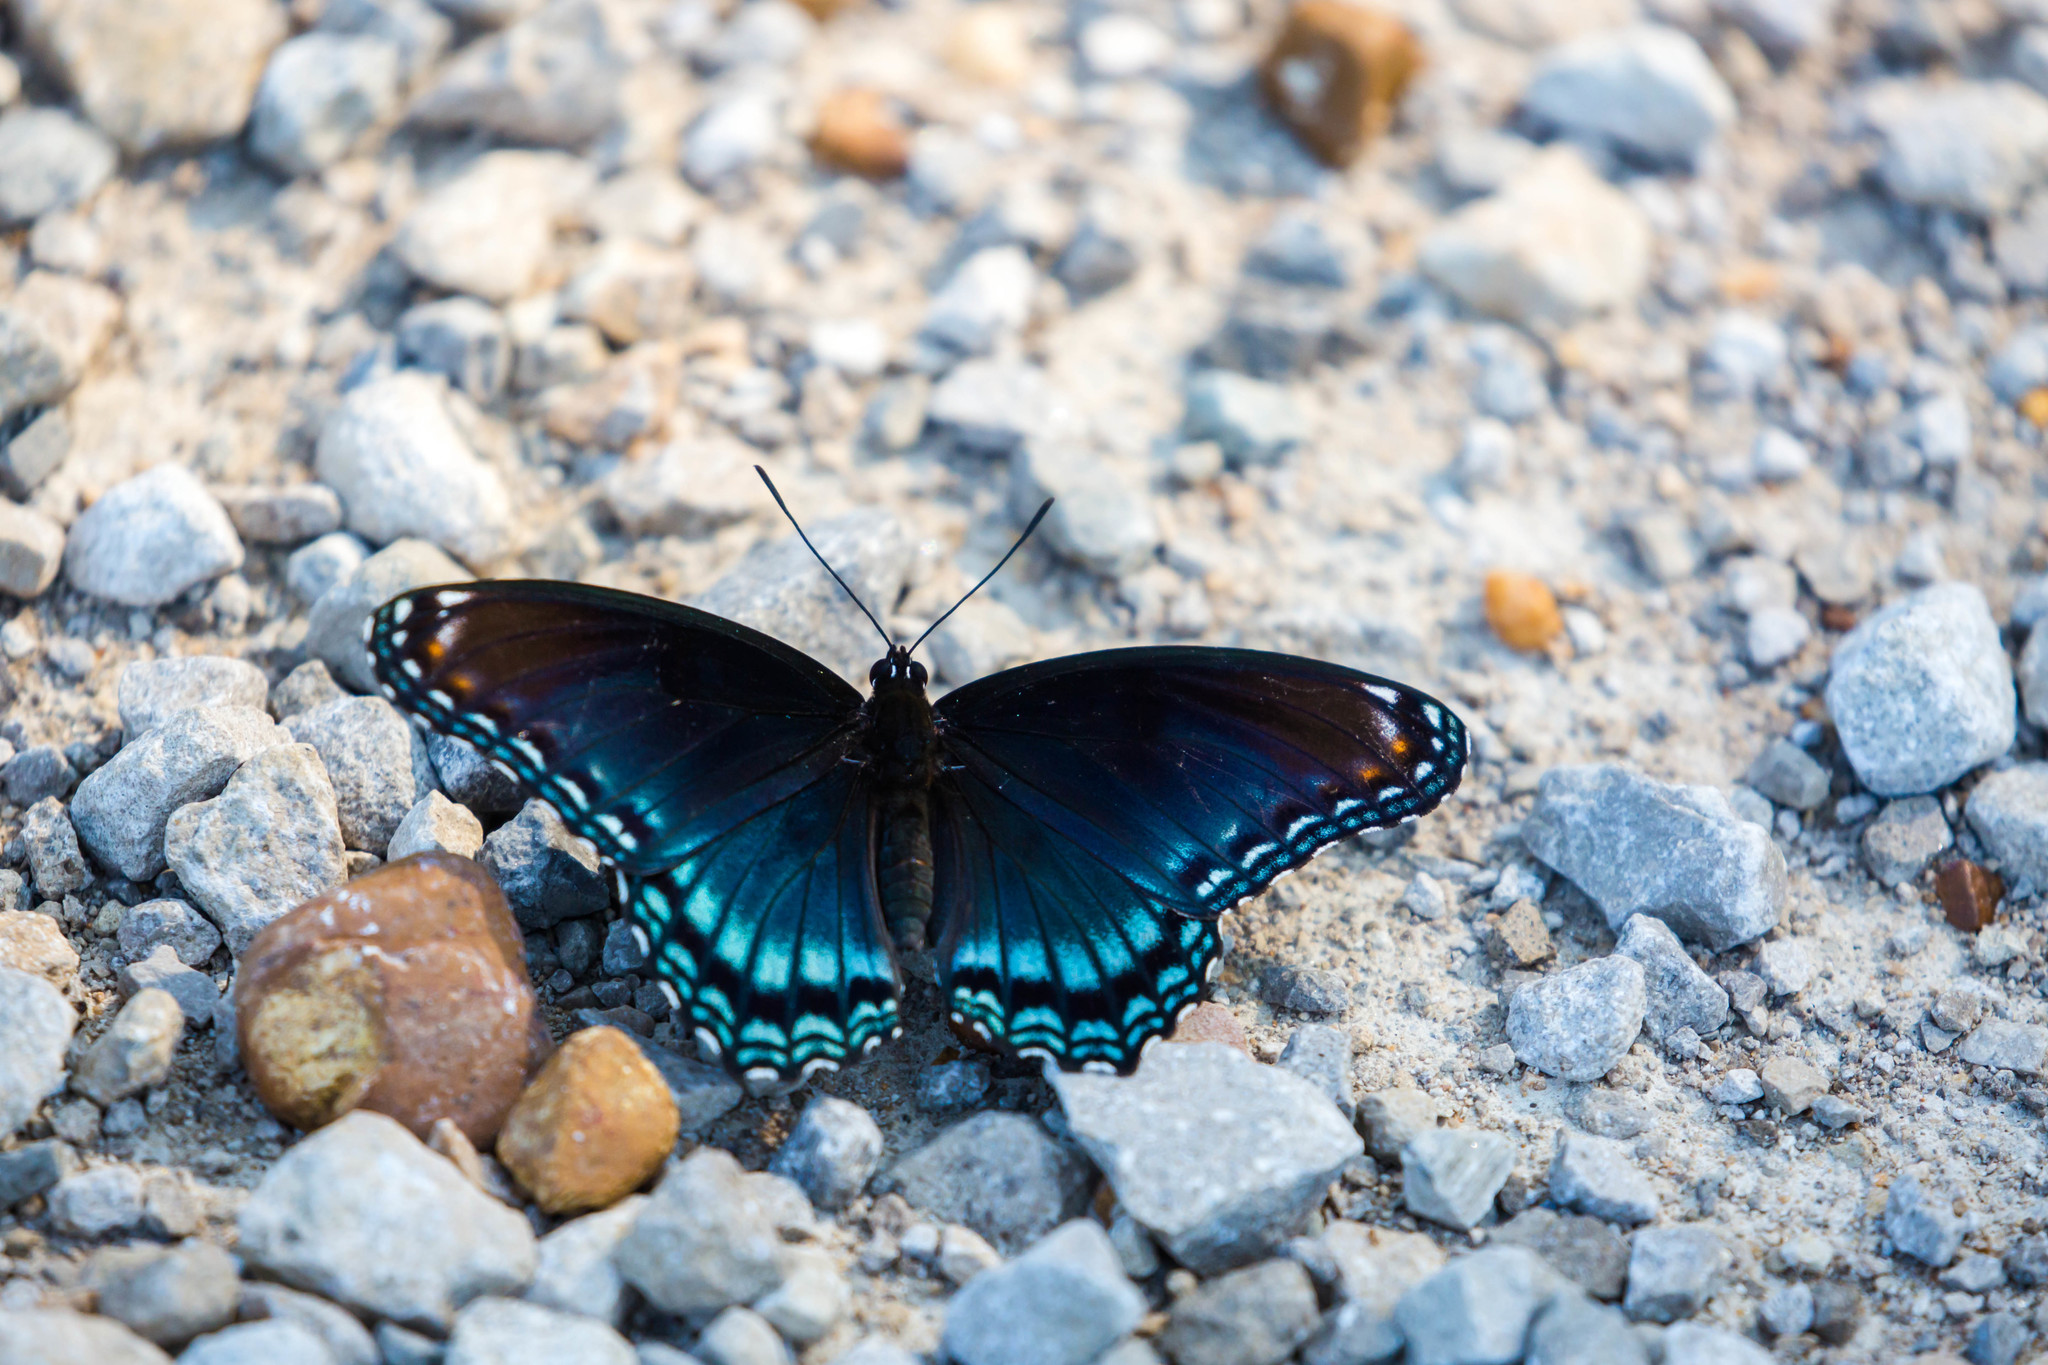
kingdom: Animalia
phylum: Arthropoda
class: Insecta
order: Lepidoptera
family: Nymphalidae
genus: Limenitis
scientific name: Limenitis astyanax
